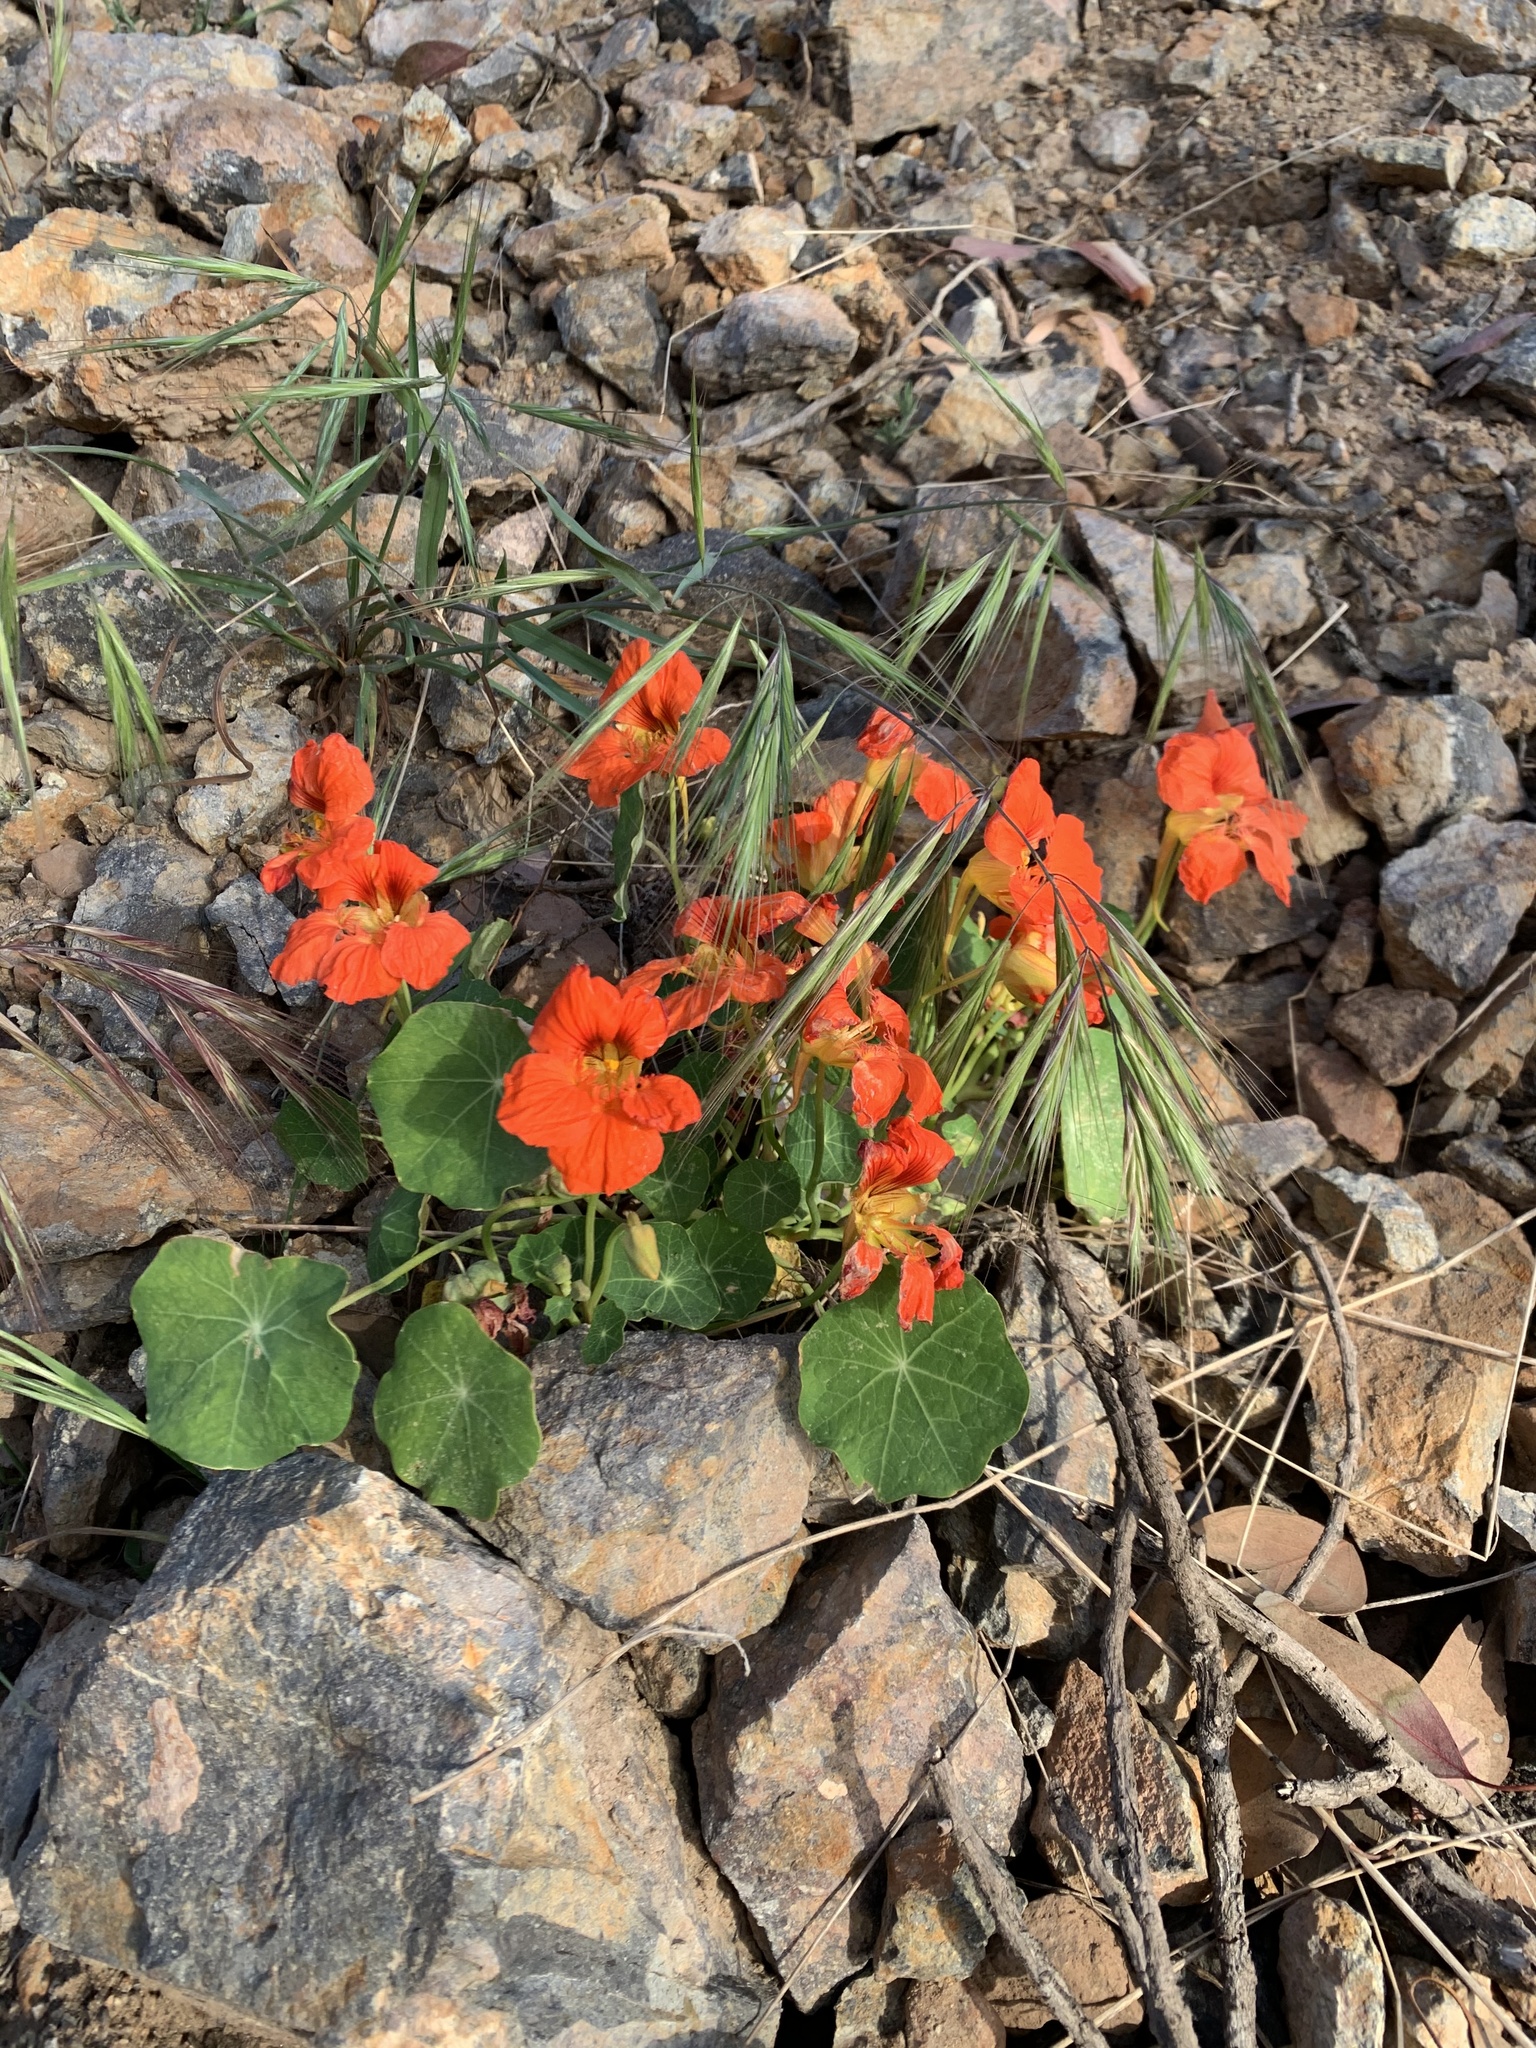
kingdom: Plantae
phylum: Tracheophyta
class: Magnoliopsida
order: Brassicales
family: Tropaeolaceae
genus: Tropaeolum
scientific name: Tropaeolum majus
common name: Nasturtium
